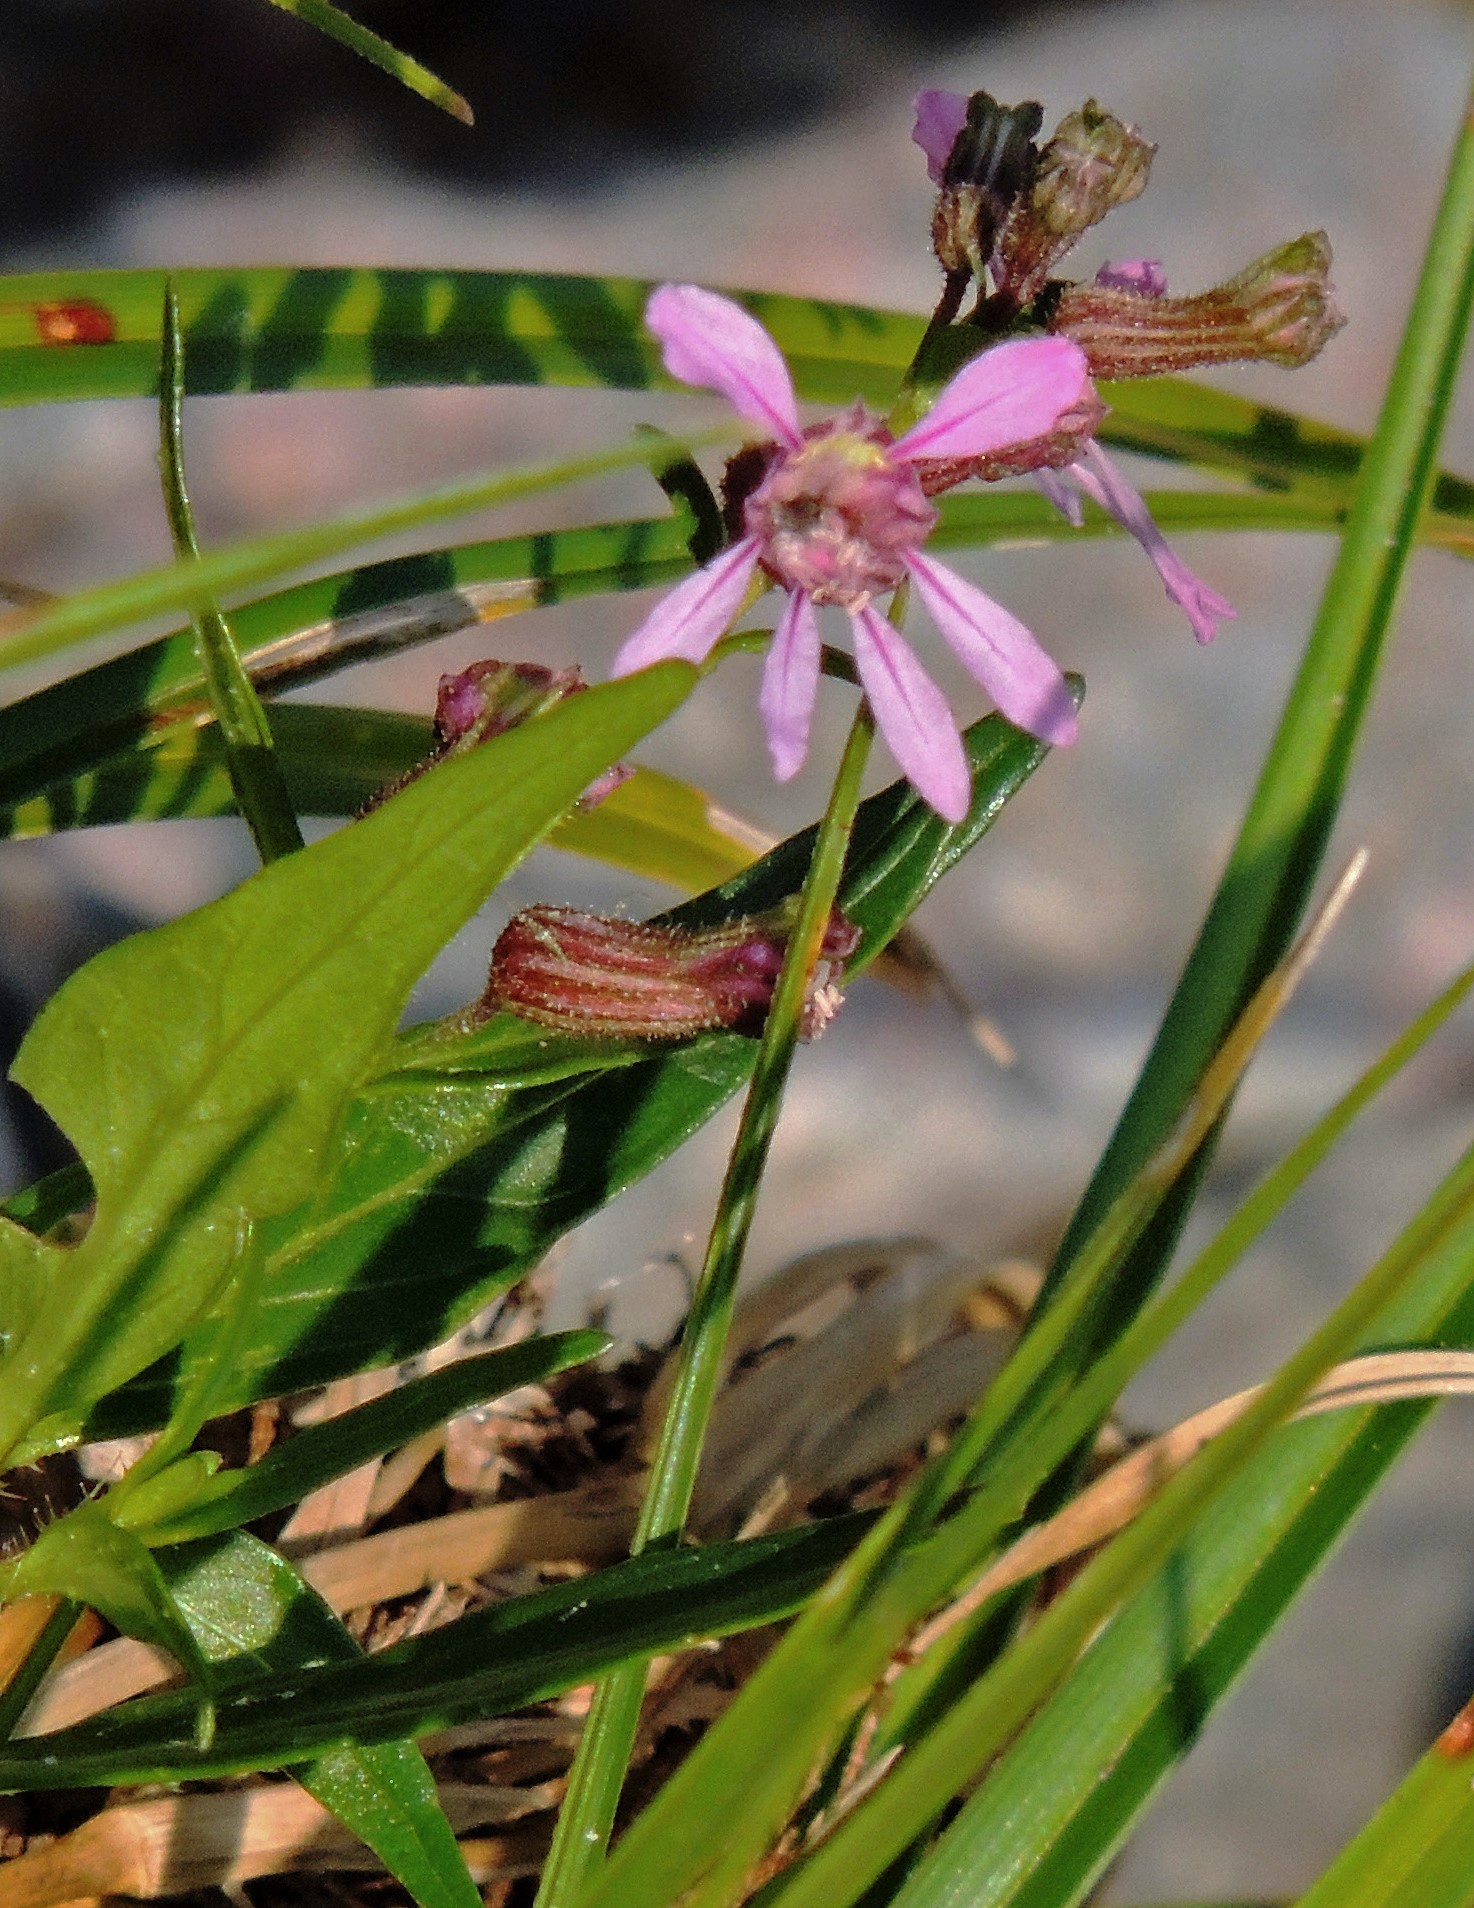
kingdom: Plantae
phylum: Tracheophyta
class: Magnoliopsida
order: Myrtales
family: Lythraceae
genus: Cuphea
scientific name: Cuphea fruticosa
